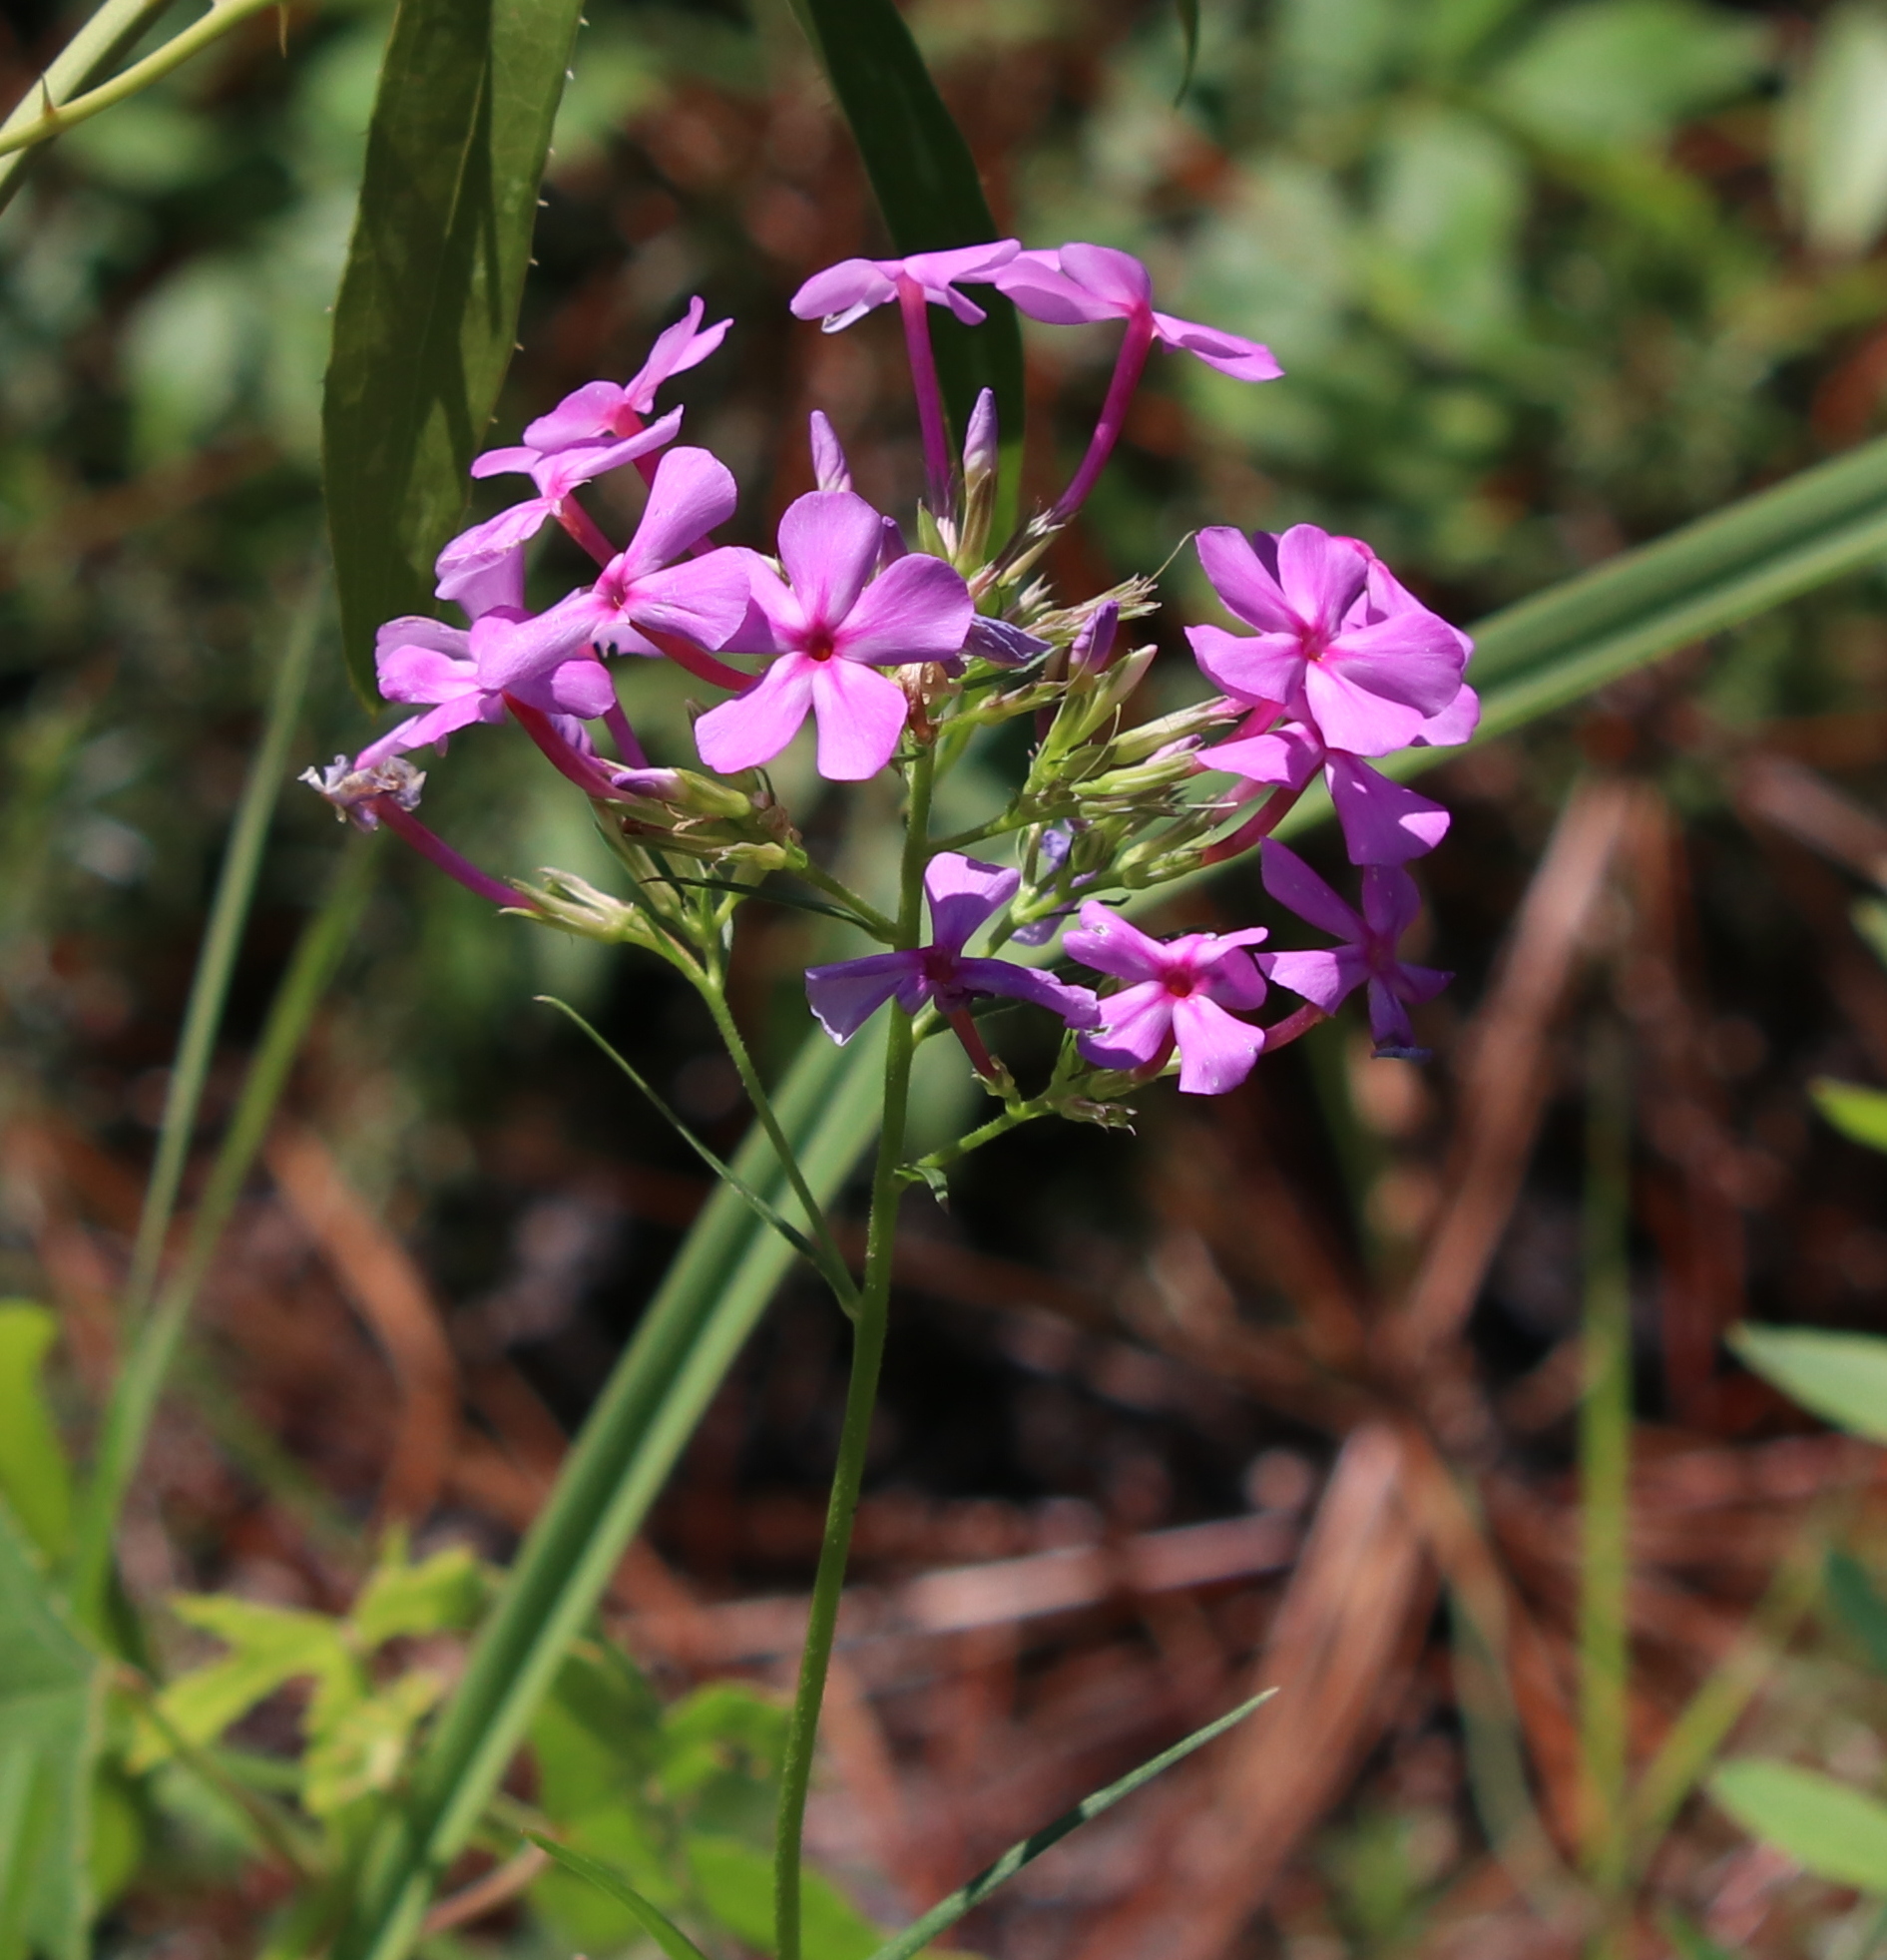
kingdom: Plantae
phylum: Tracheophyta
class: Magnoliopsida
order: Ericales
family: Polemoniaceae
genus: Phlox
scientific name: Phlox carolina
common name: Thick-leaf phlox
